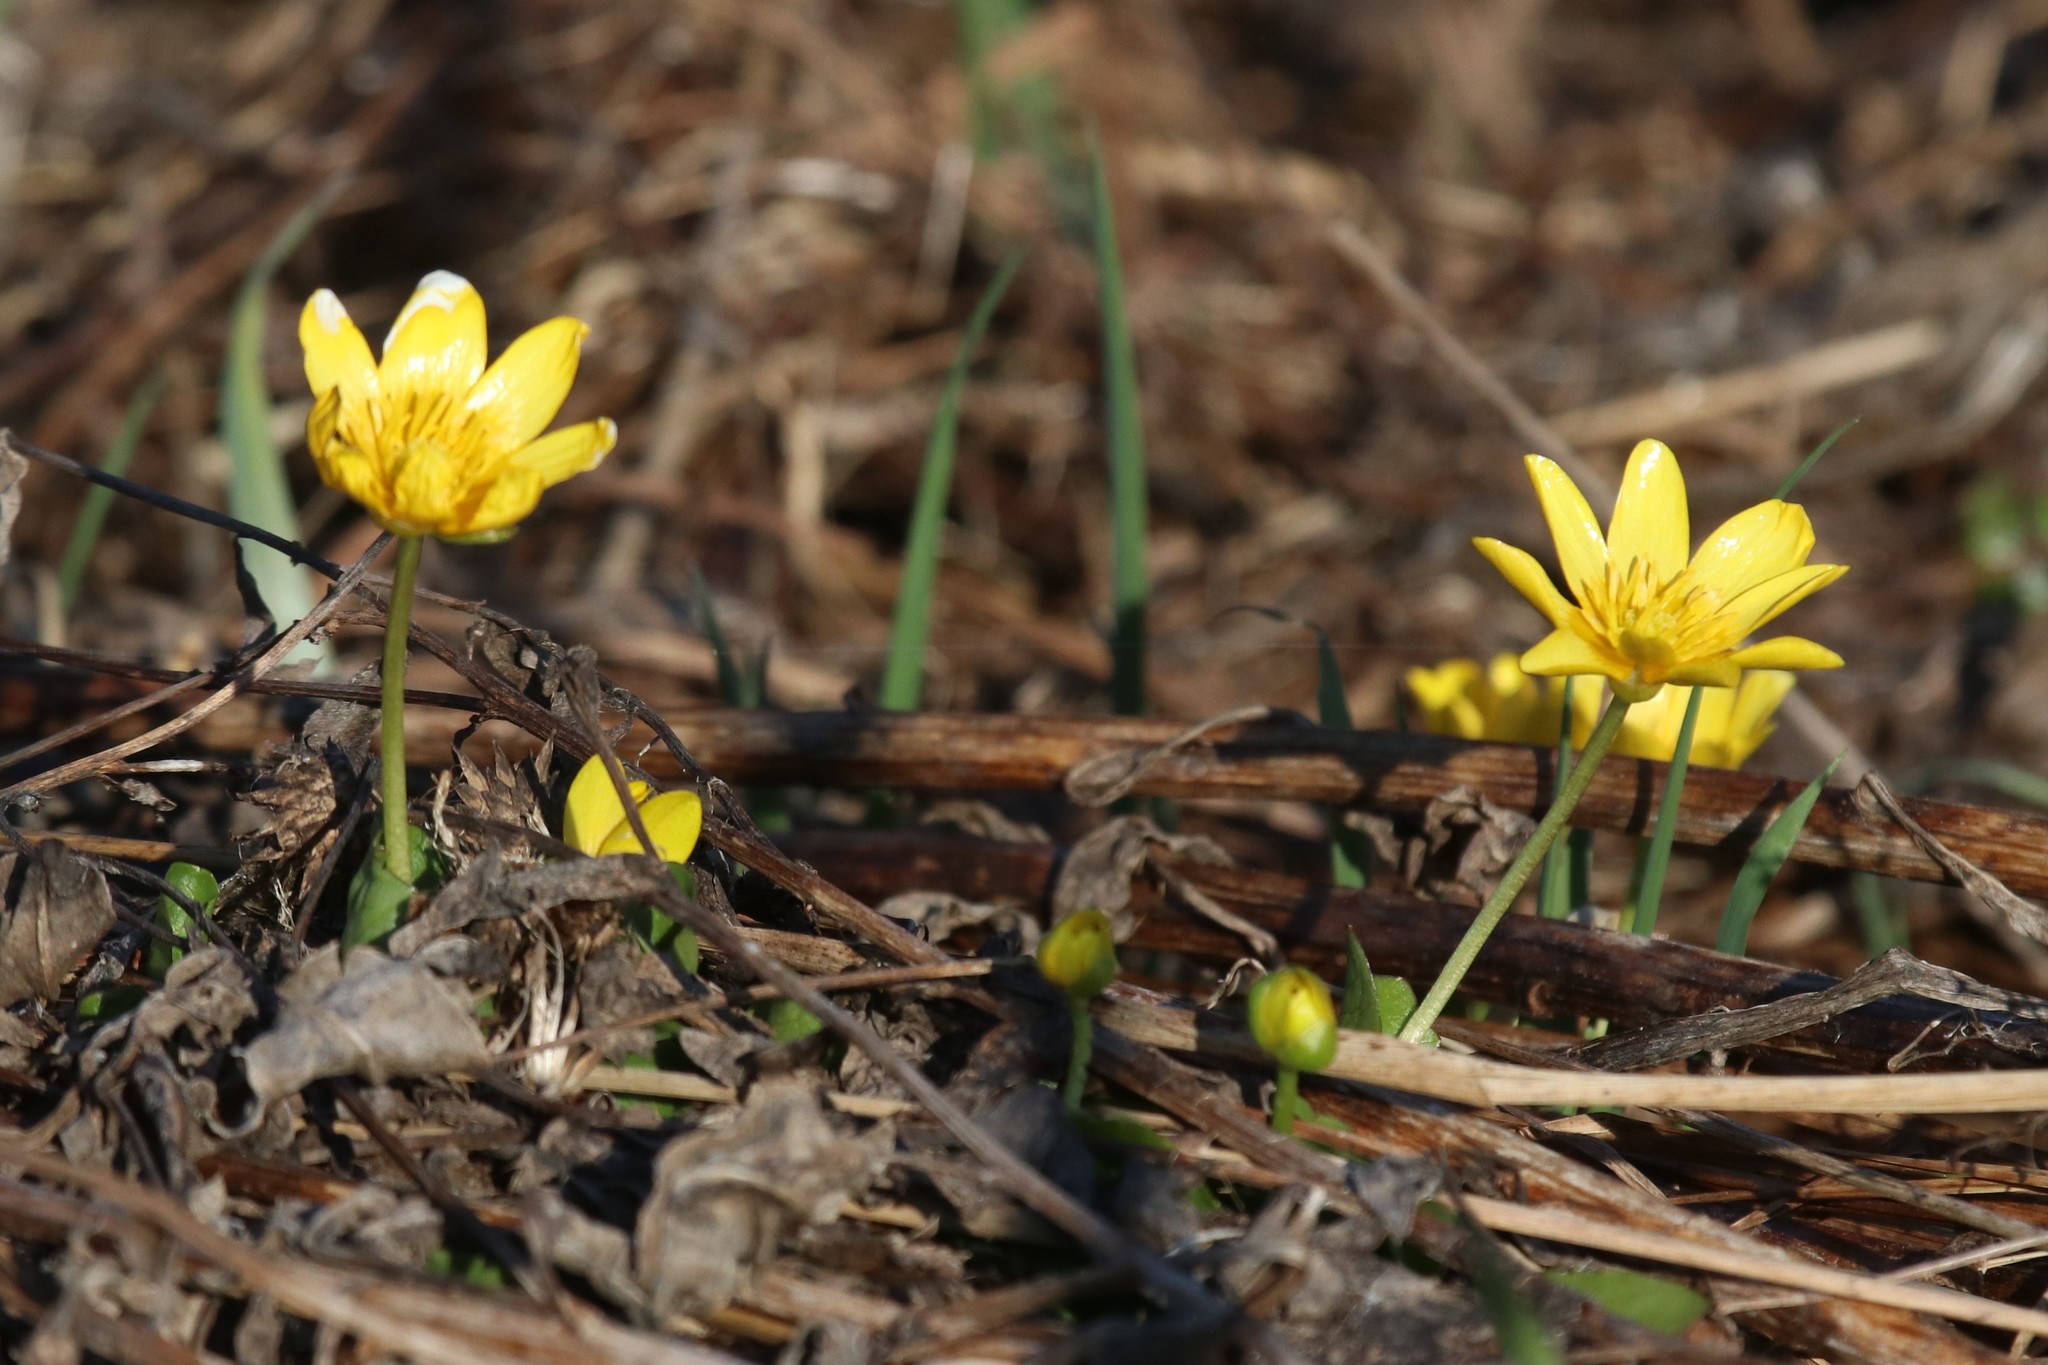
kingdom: Plantae
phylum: Tracheophyta
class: Magnoliopsida
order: Ranunculales
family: Ranunculaceae
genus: Ficaria
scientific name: Ficaria verna
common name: Lesser celandine
